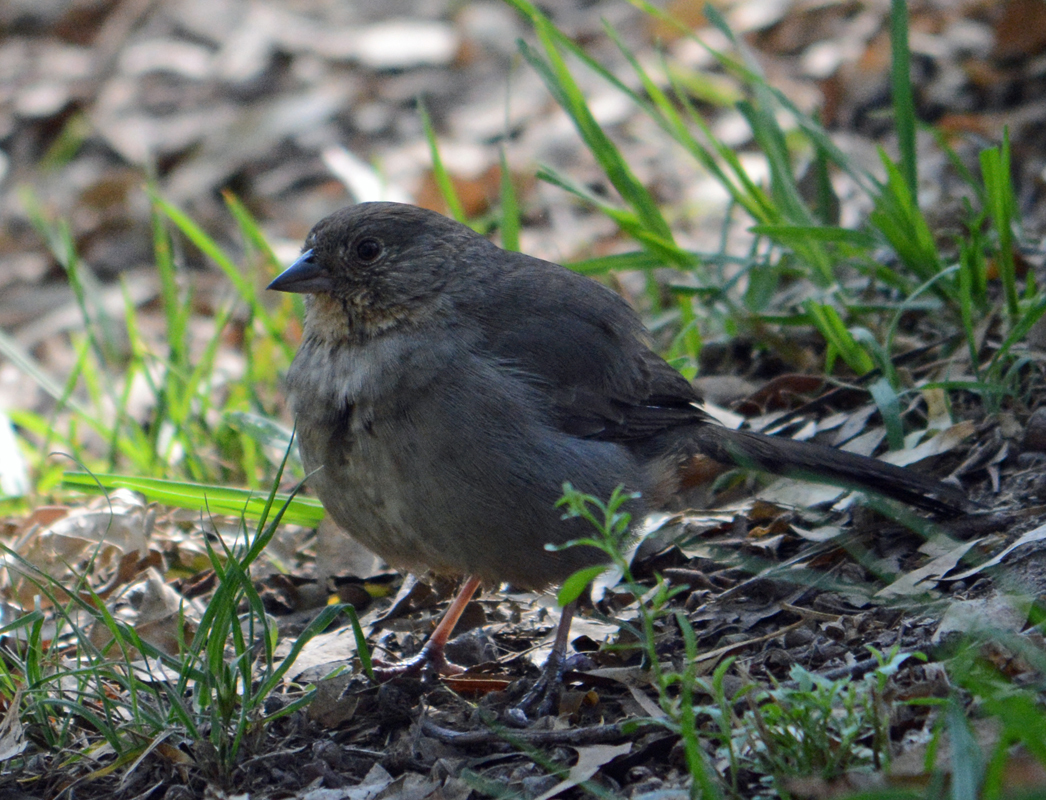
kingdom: Animalia
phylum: Chordata
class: Aves
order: Passeriformes
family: Passerellidae
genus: Melozone
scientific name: Melozone fusca
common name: Canyon towhee
